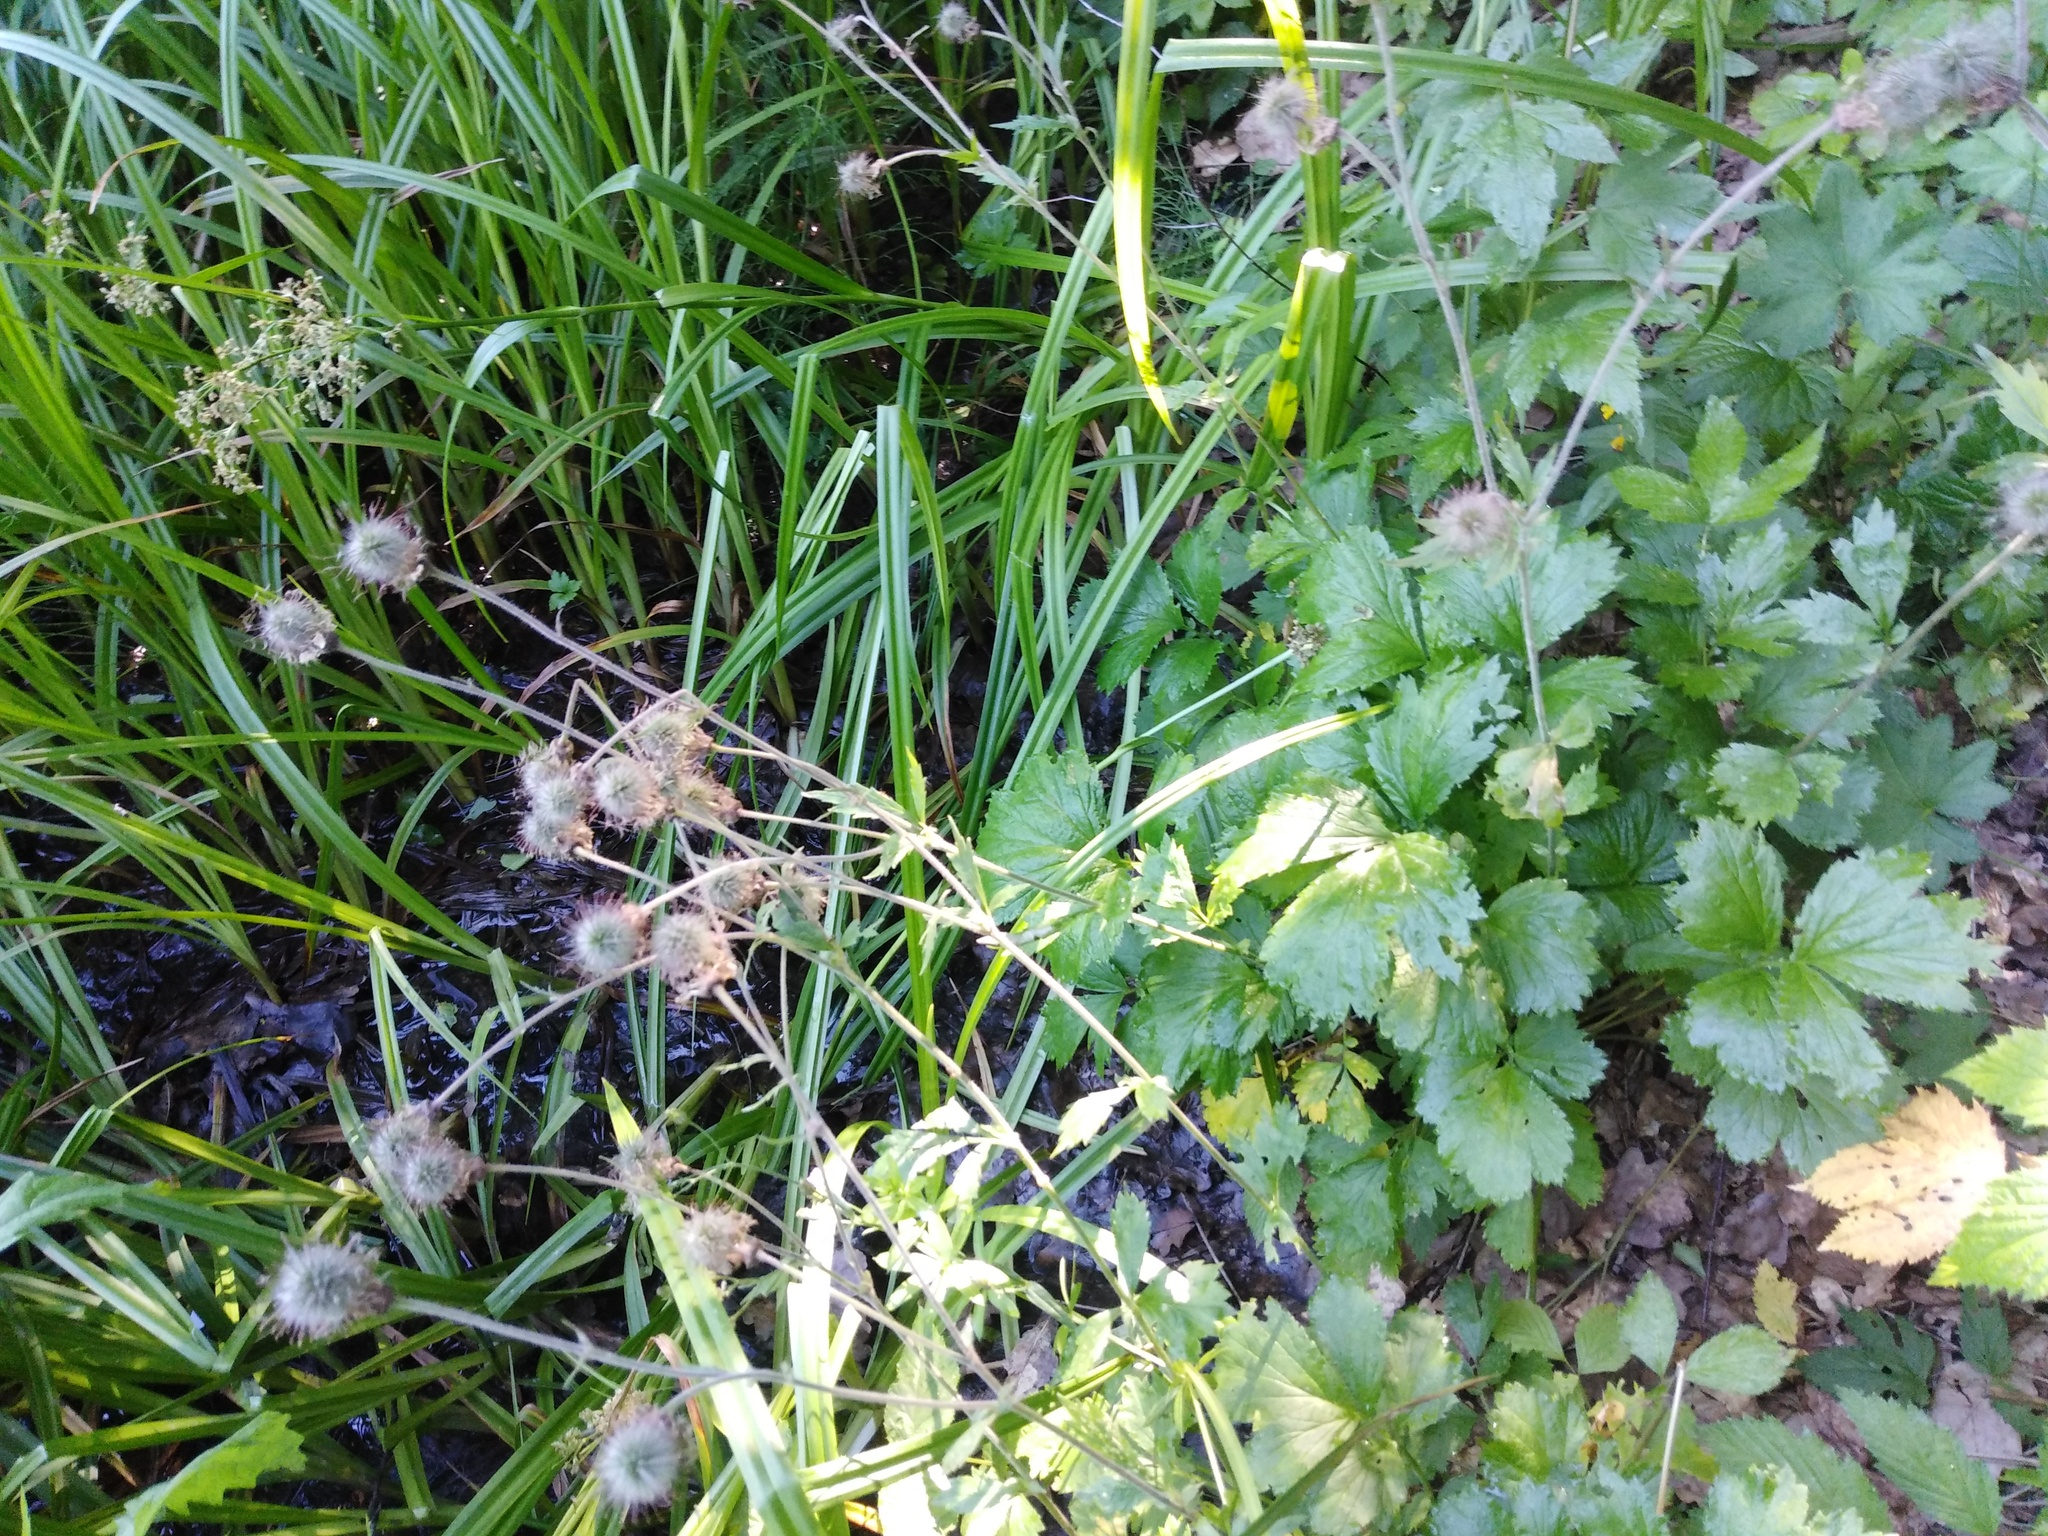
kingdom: Plantae
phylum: Tracheophyta
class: Magnoliopsida
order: Rosales
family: Rosaceae
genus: Geum
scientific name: Geum rivale
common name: Water avens
